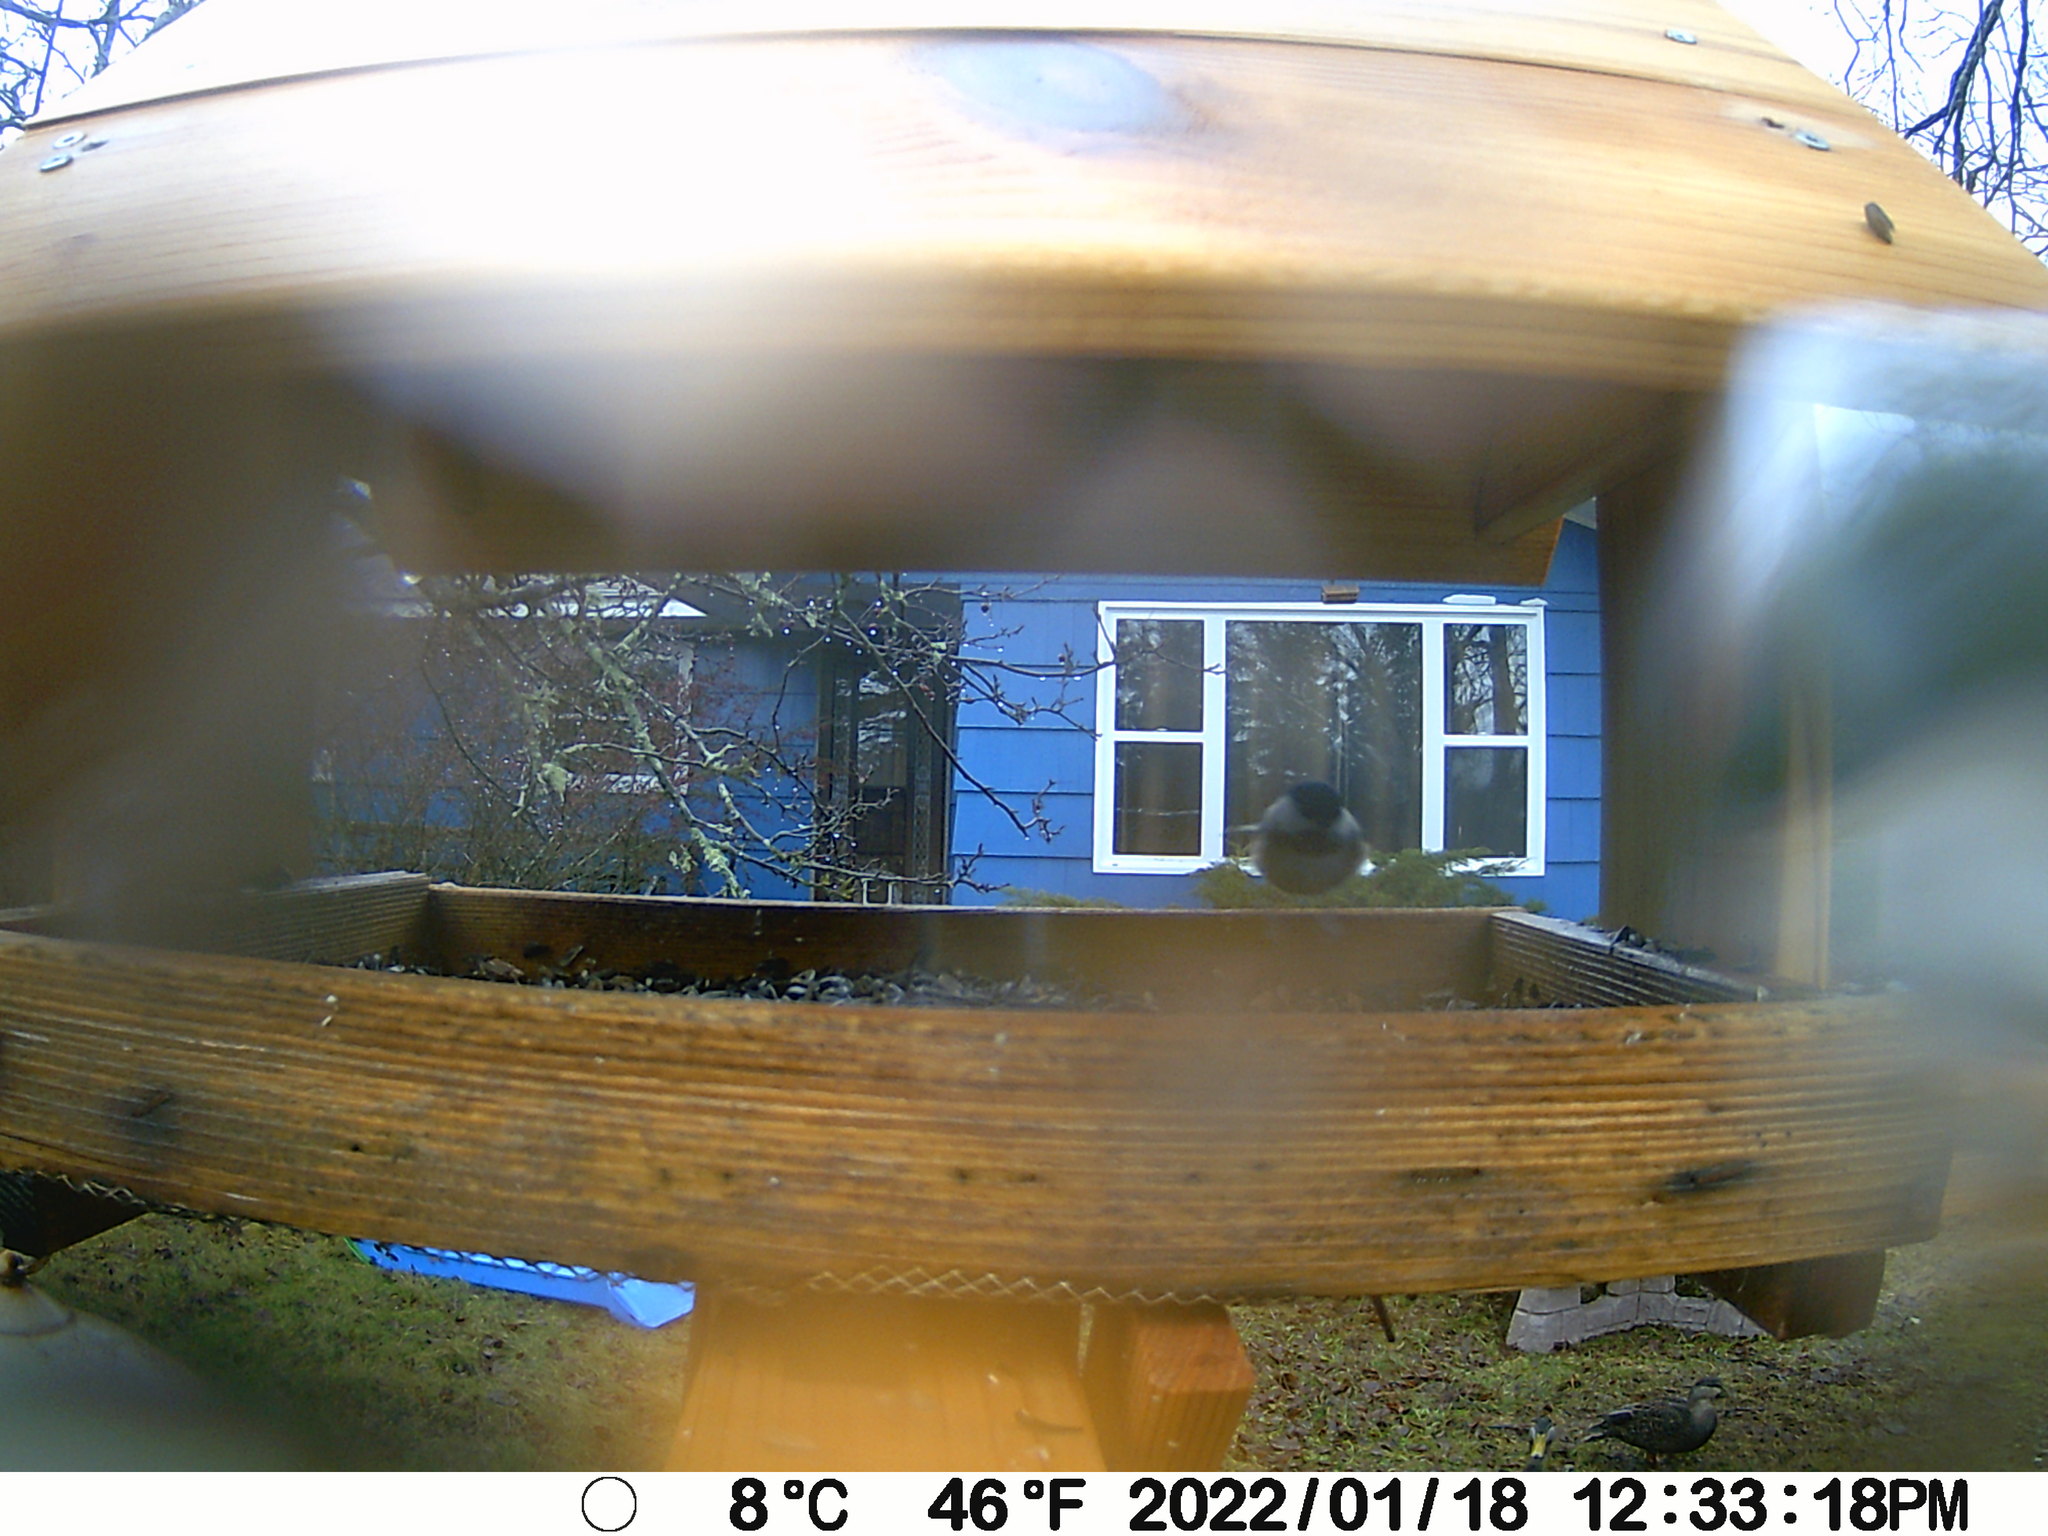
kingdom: Animalia
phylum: Chordata
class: Aves
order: Anseriformes
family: Anatidae
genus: Anas
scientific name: Anas rubripes
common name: American black duck
